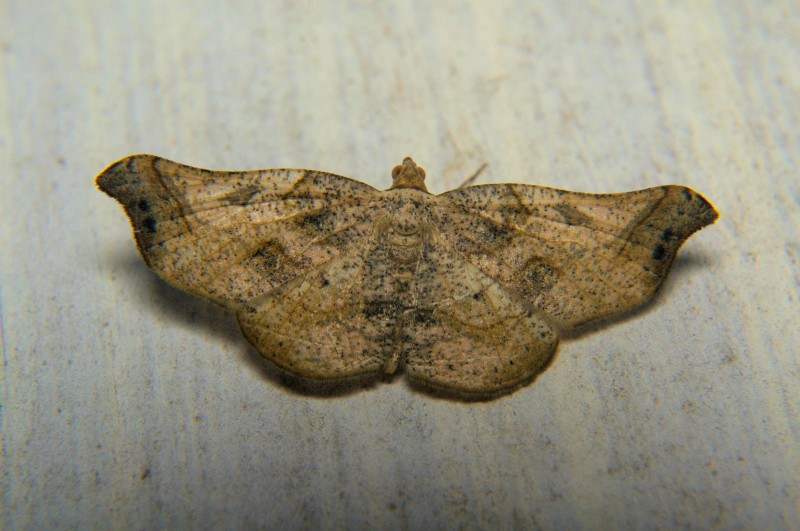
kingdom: Animalia
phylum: Arthropoda
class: Insecta
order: Lepidoptera
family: Geometridae
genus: Ozola
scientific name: Ozola biangulifera
